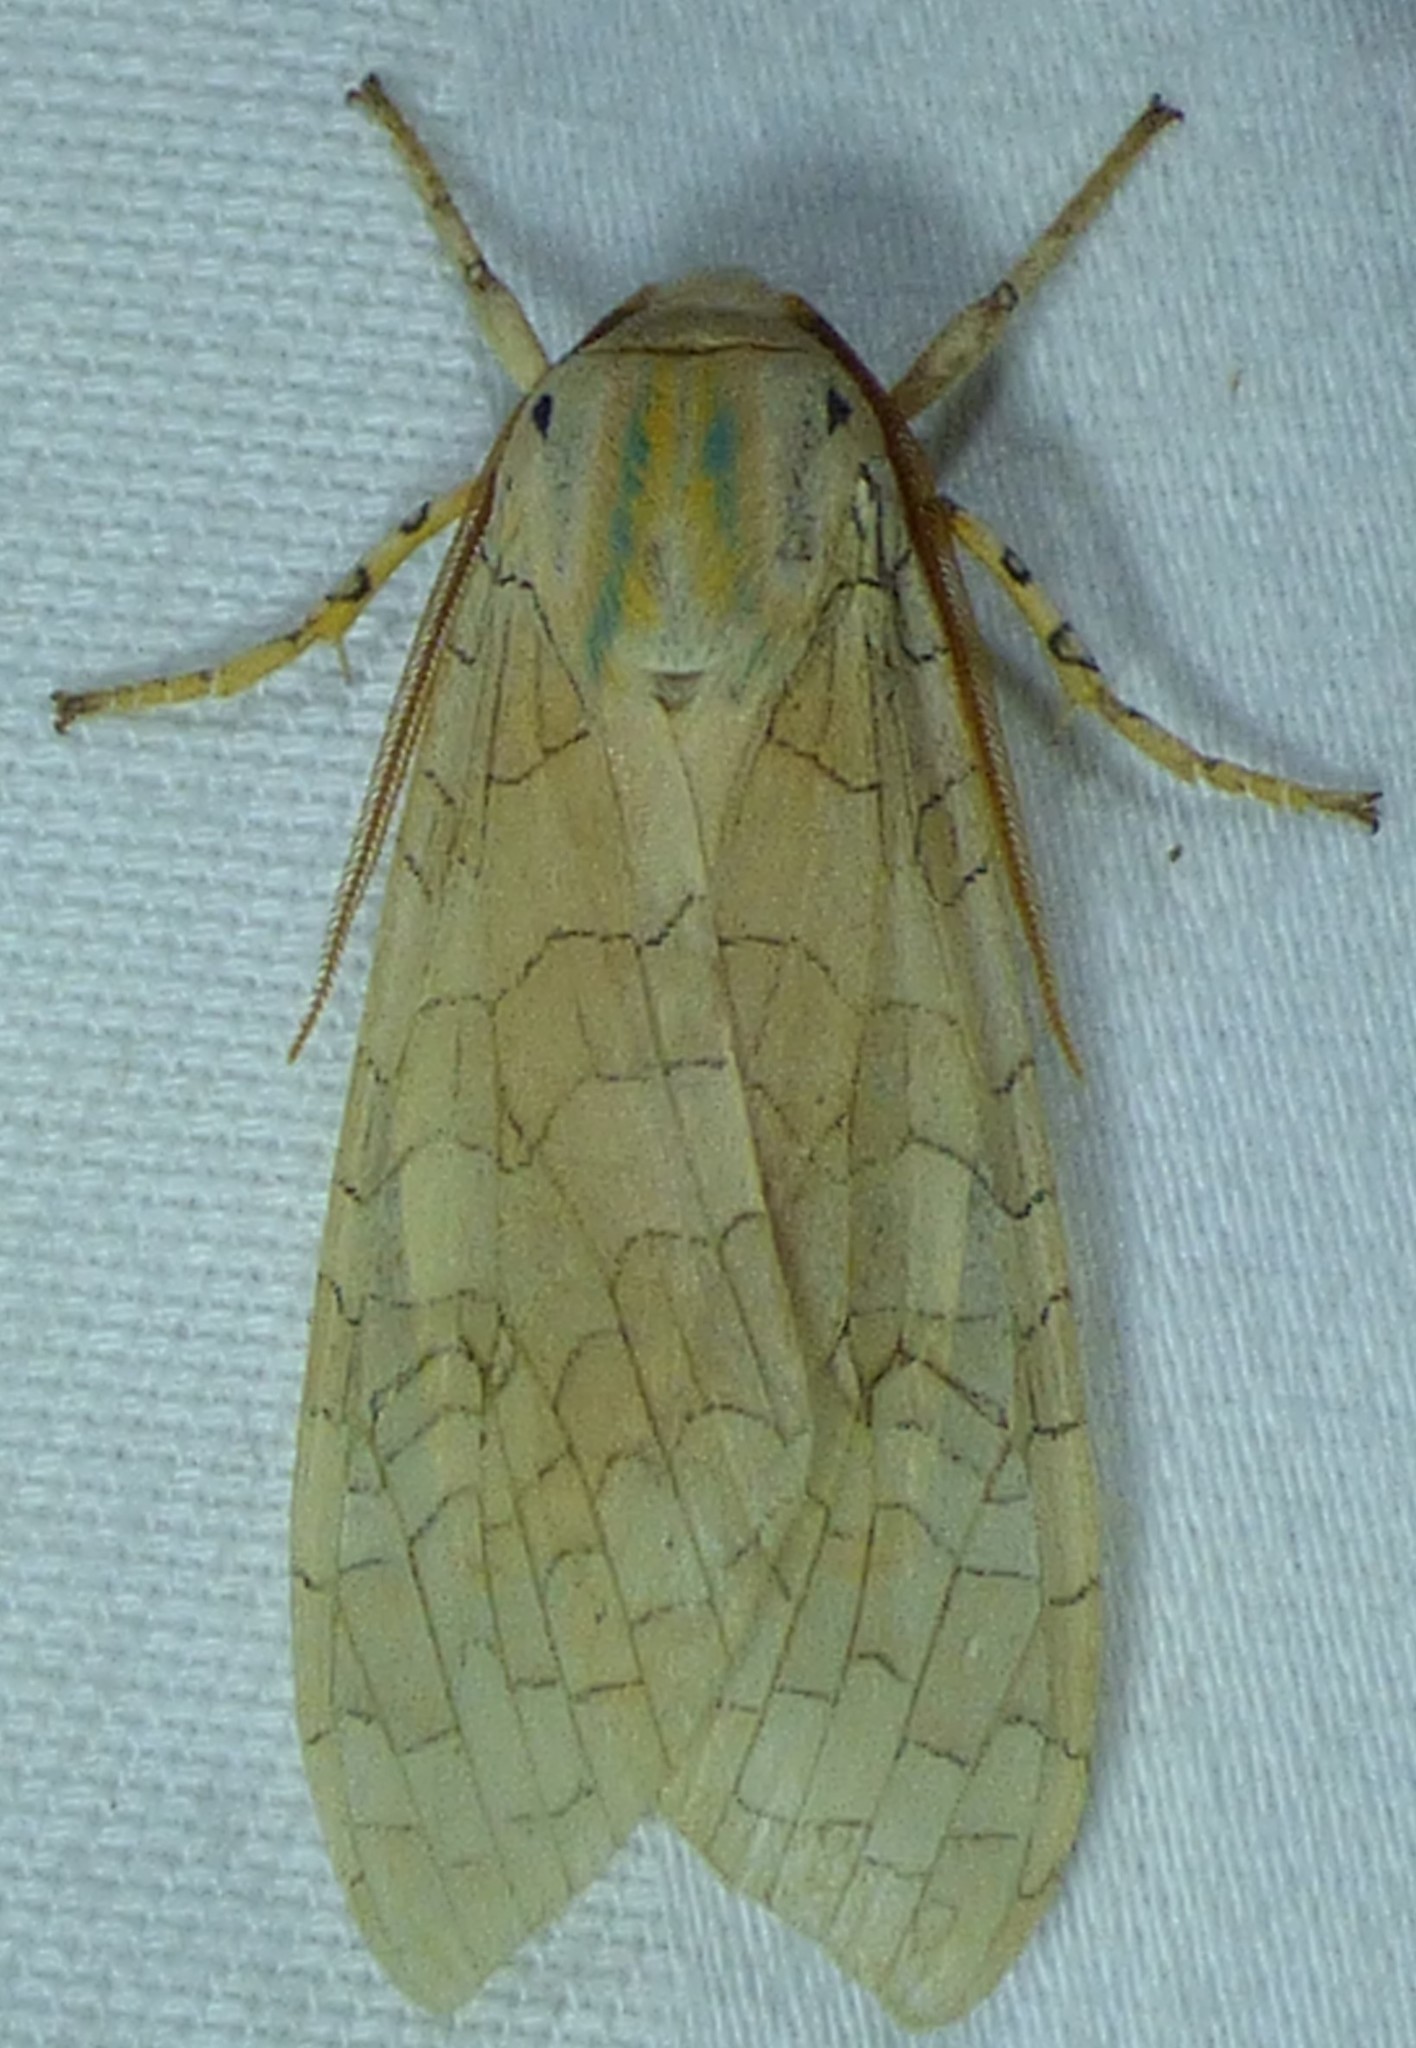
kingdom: Animalia
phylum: Arthropoda
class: Insecta
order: Lepidoptera
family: Erebidae
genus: Halysidota
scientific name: Halysidota
